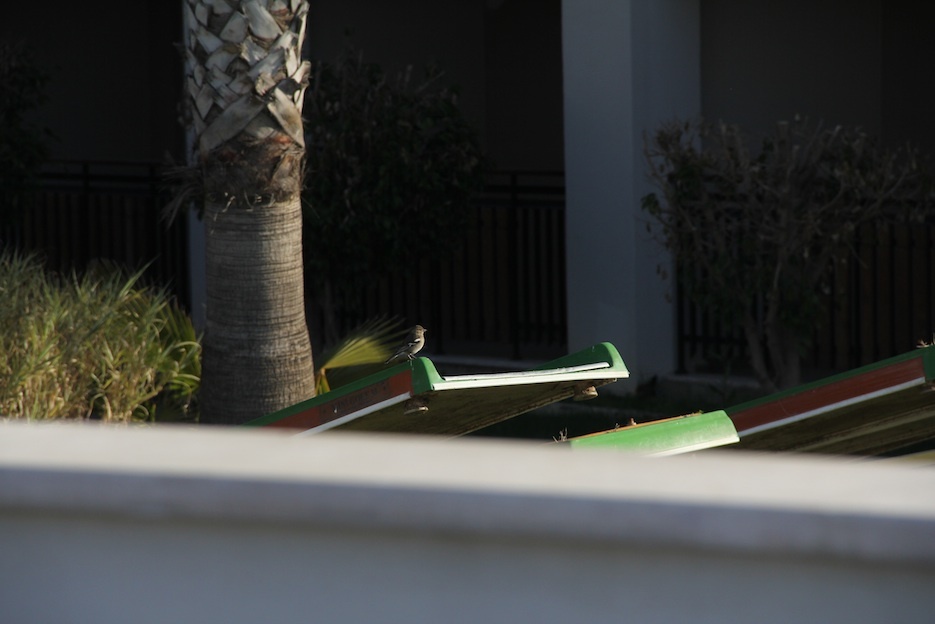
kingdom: Animalia
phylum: Chordata
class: Aves
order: Passeriformes
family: Fringillidae
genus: Fringilla
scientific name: Fringilla coelebs
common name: Common chaffinch
